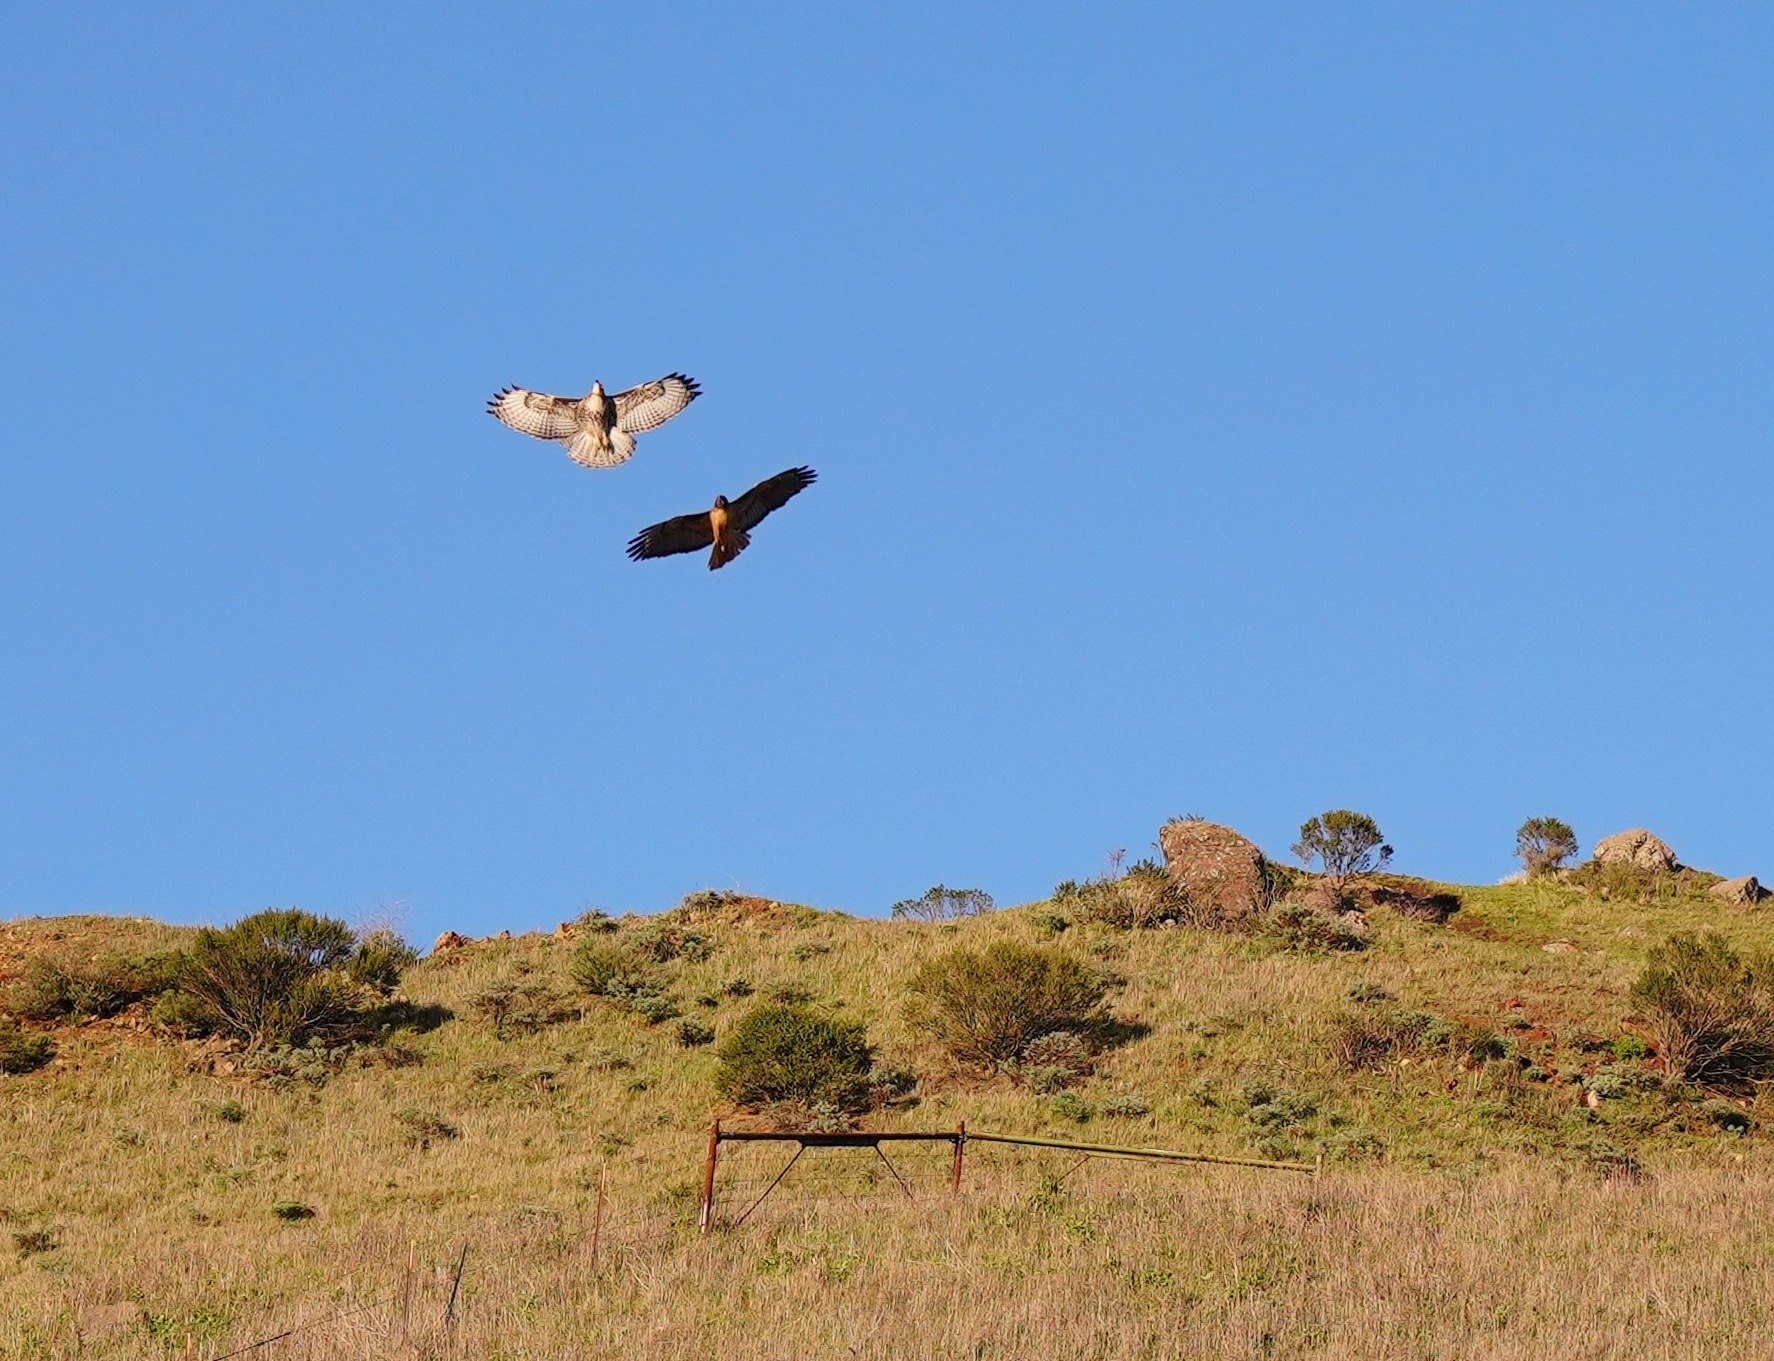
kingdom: Animalia
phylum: Chordata
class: Aves
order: Accipitriformes
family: Accipitridae
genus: Buteo
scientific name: Buteo jamaicensis
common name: Red-tailed hawk
